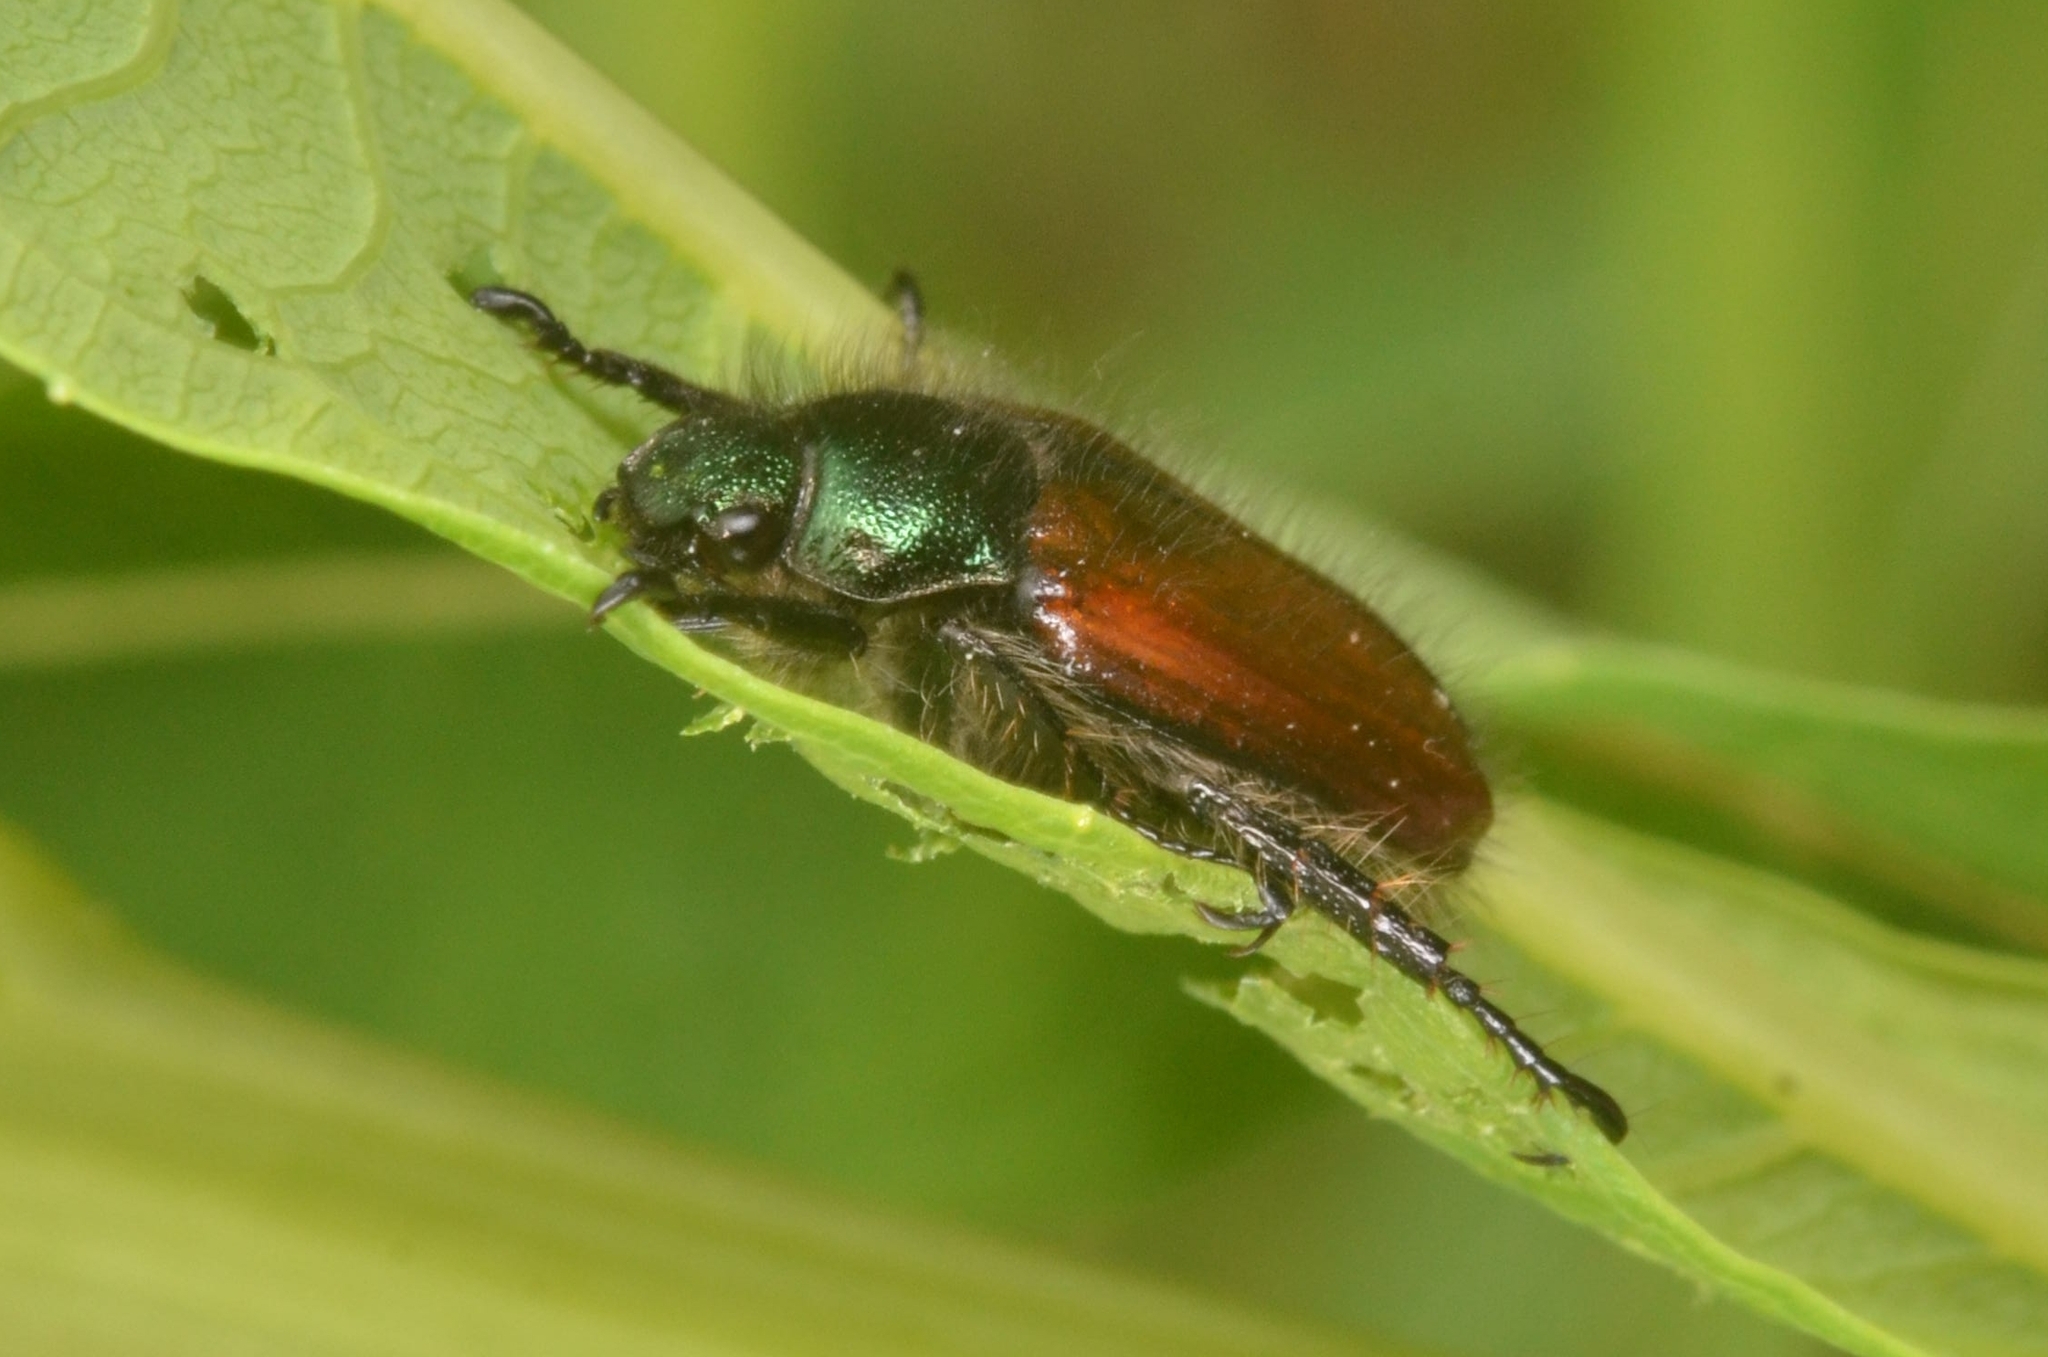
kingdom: Animalia
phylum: Arthropoda
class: Insecta
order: Coleoptera
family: Scarabaeidae
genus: Phyllopertha
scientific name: Phyllopertha horticola
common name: Garden chafer
